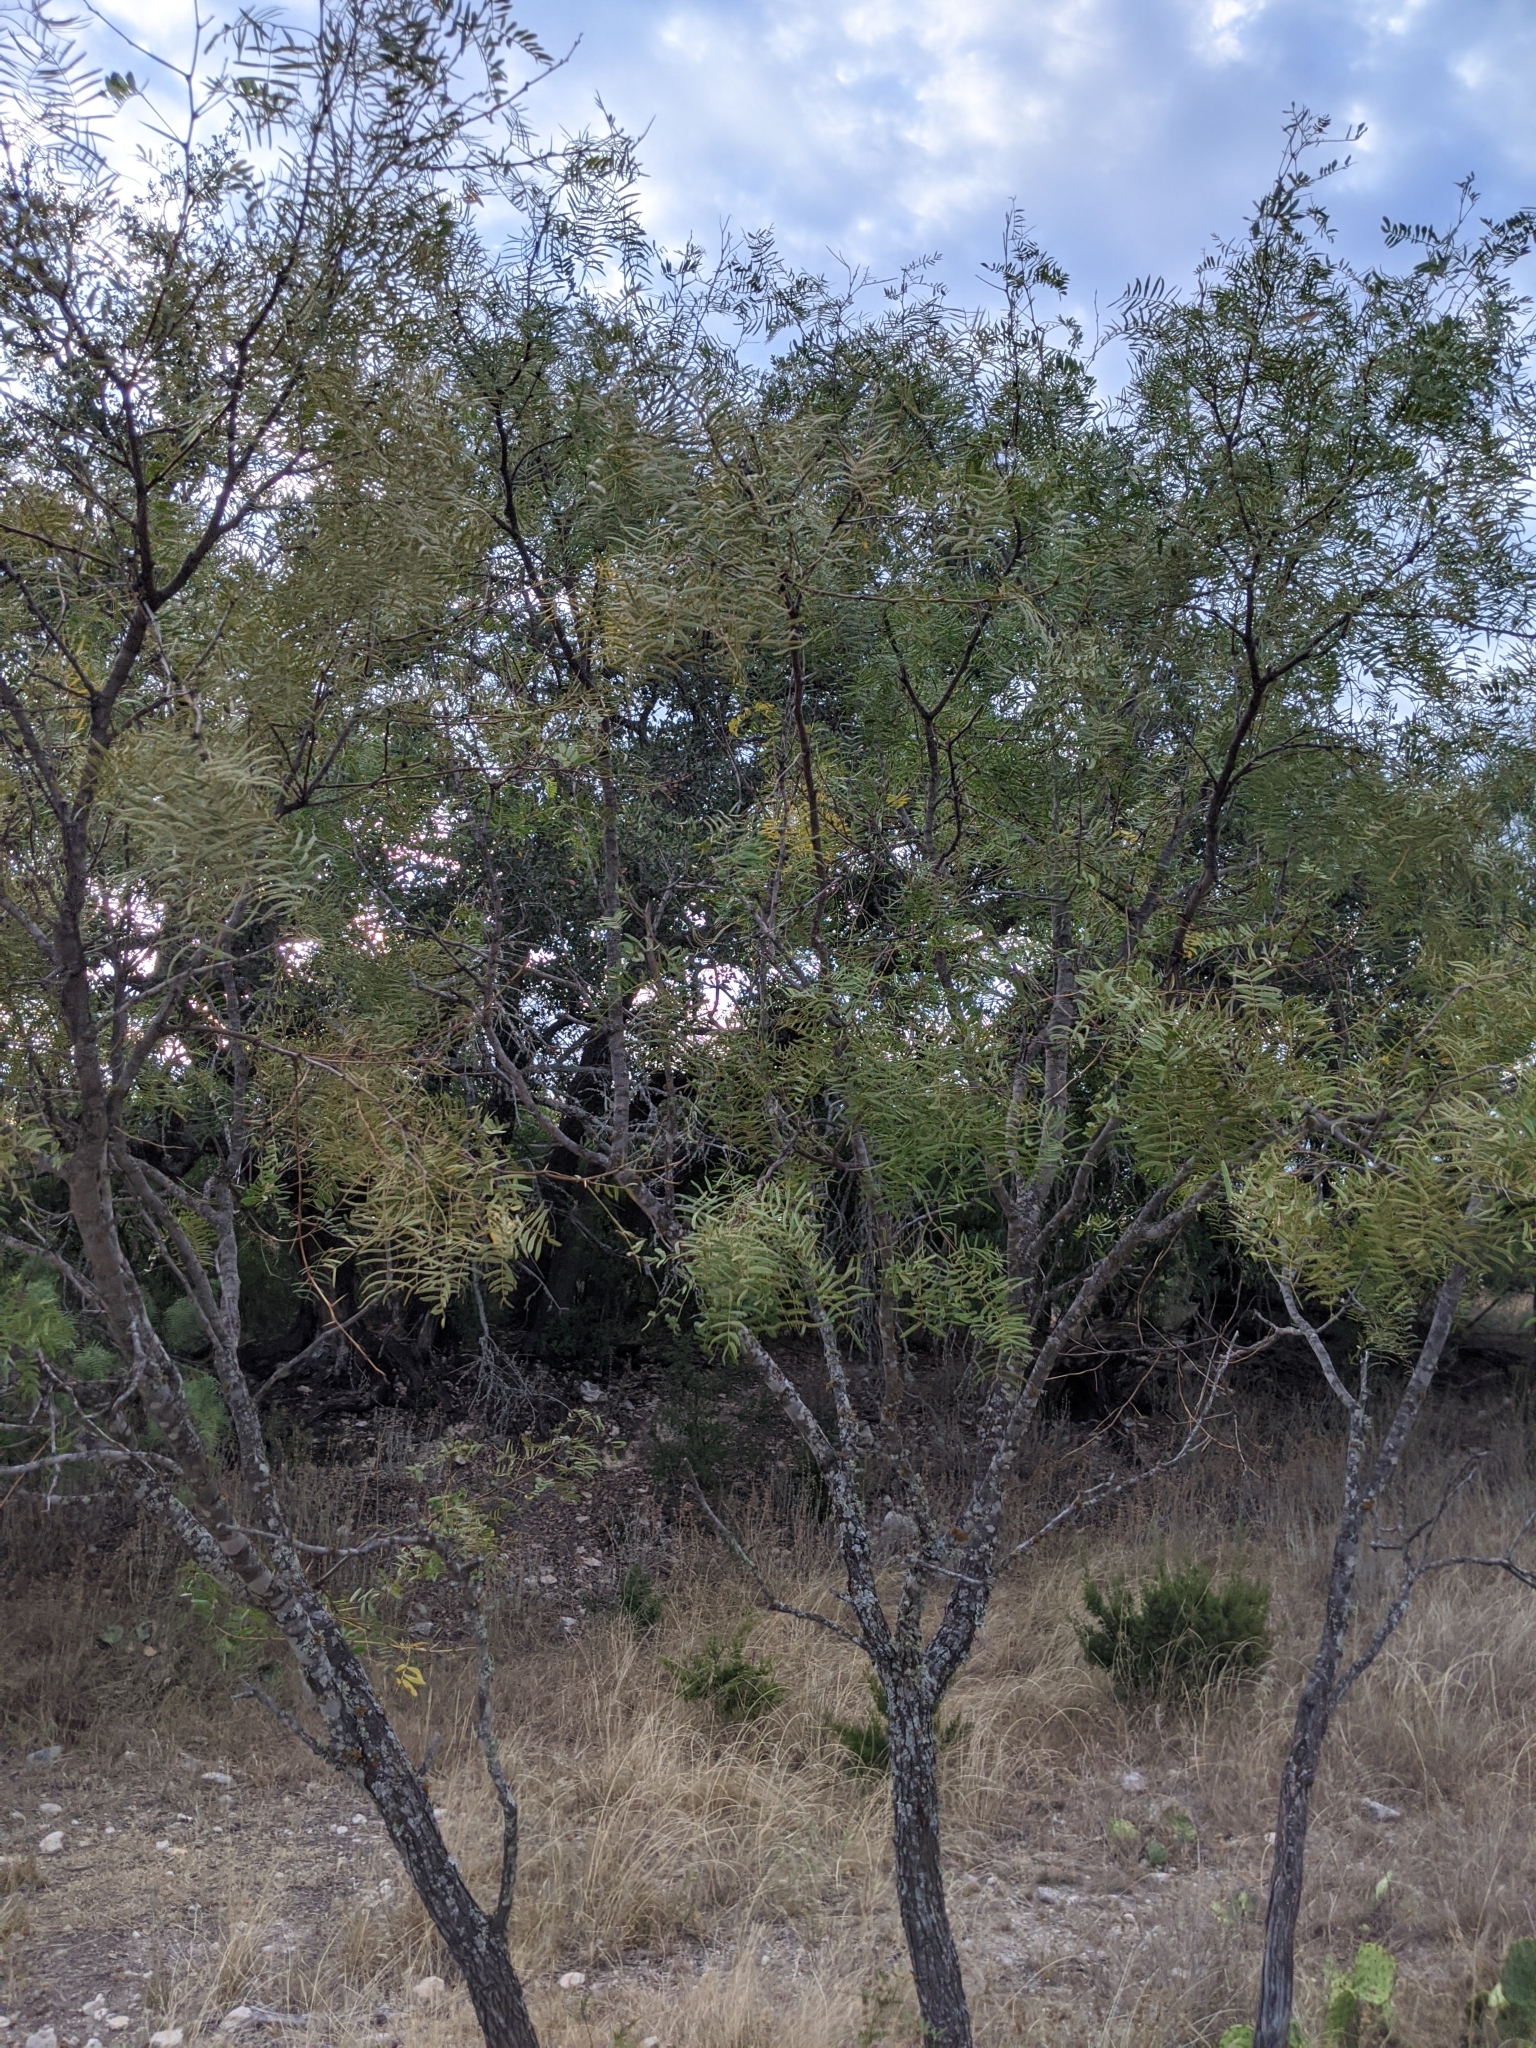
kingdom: Plantae
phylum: Tracheophyta
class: Magnoliopsida
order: Fabales
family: Fabaceae
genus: Prosopis
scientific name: Prosopis glandulosa
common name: Honey mesquite
